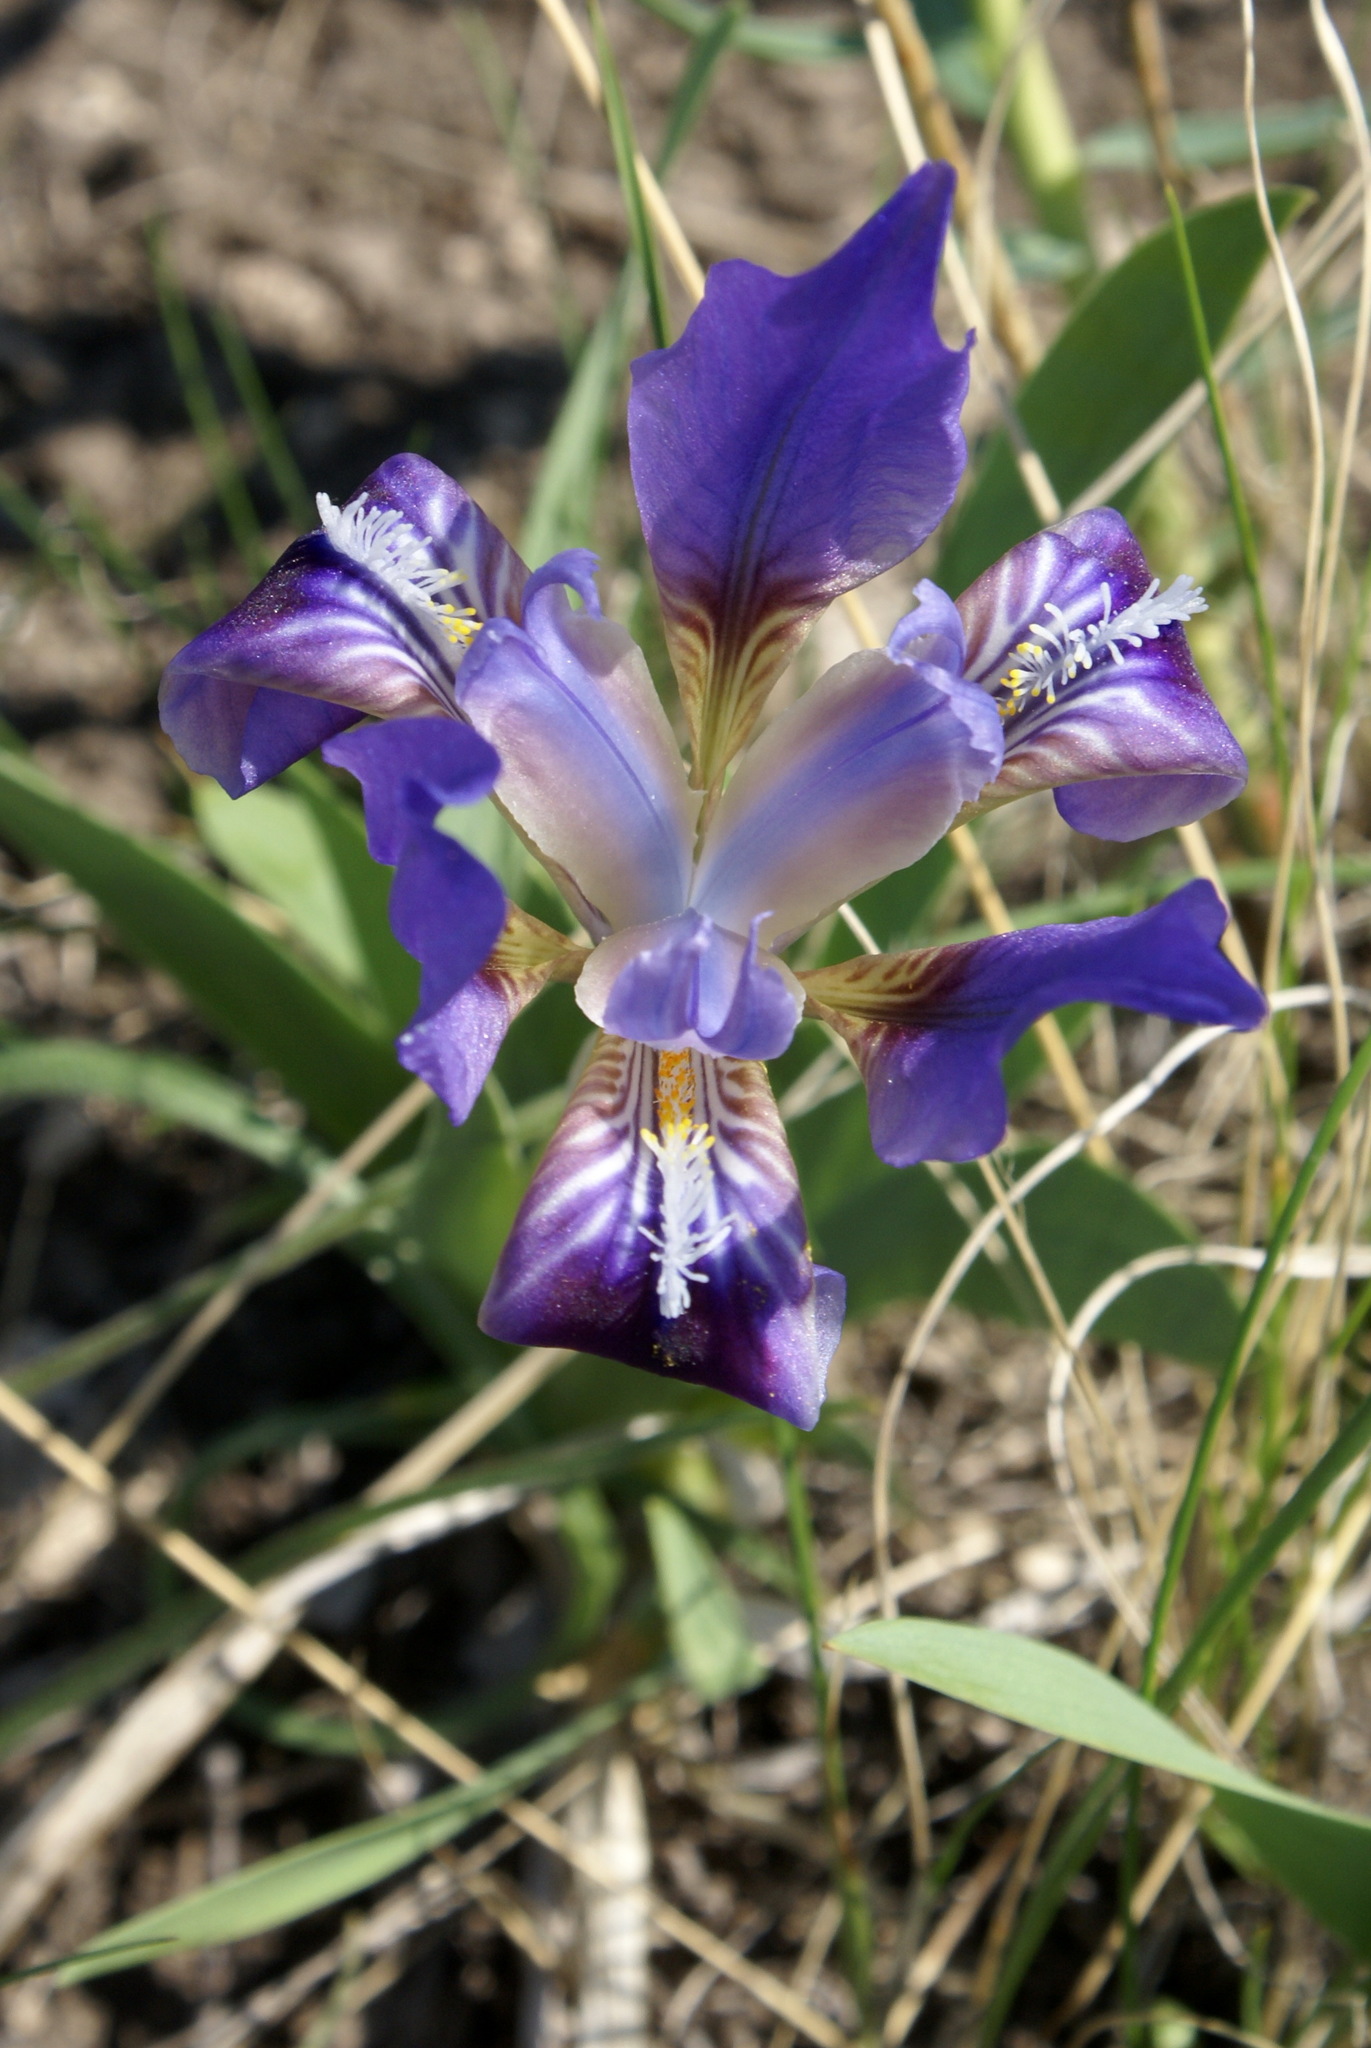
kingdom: Plantae
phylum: Tracheophyta
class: Liliopsida
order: Asparagales
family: Iridaceae
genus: Iris
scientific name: Iris pumila
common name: Dwarf iris
